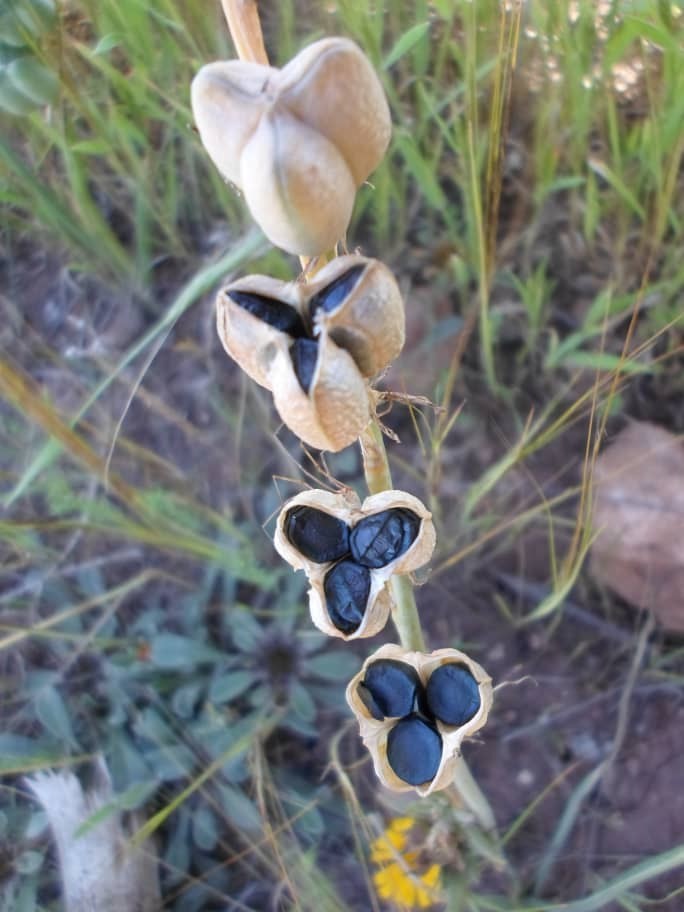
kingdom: Plantae
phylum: Tracheophyta
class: Liliopsida
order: Asparagales
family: Asparagaceae
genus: Dipcadi
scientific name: Dipcadi serotinum
